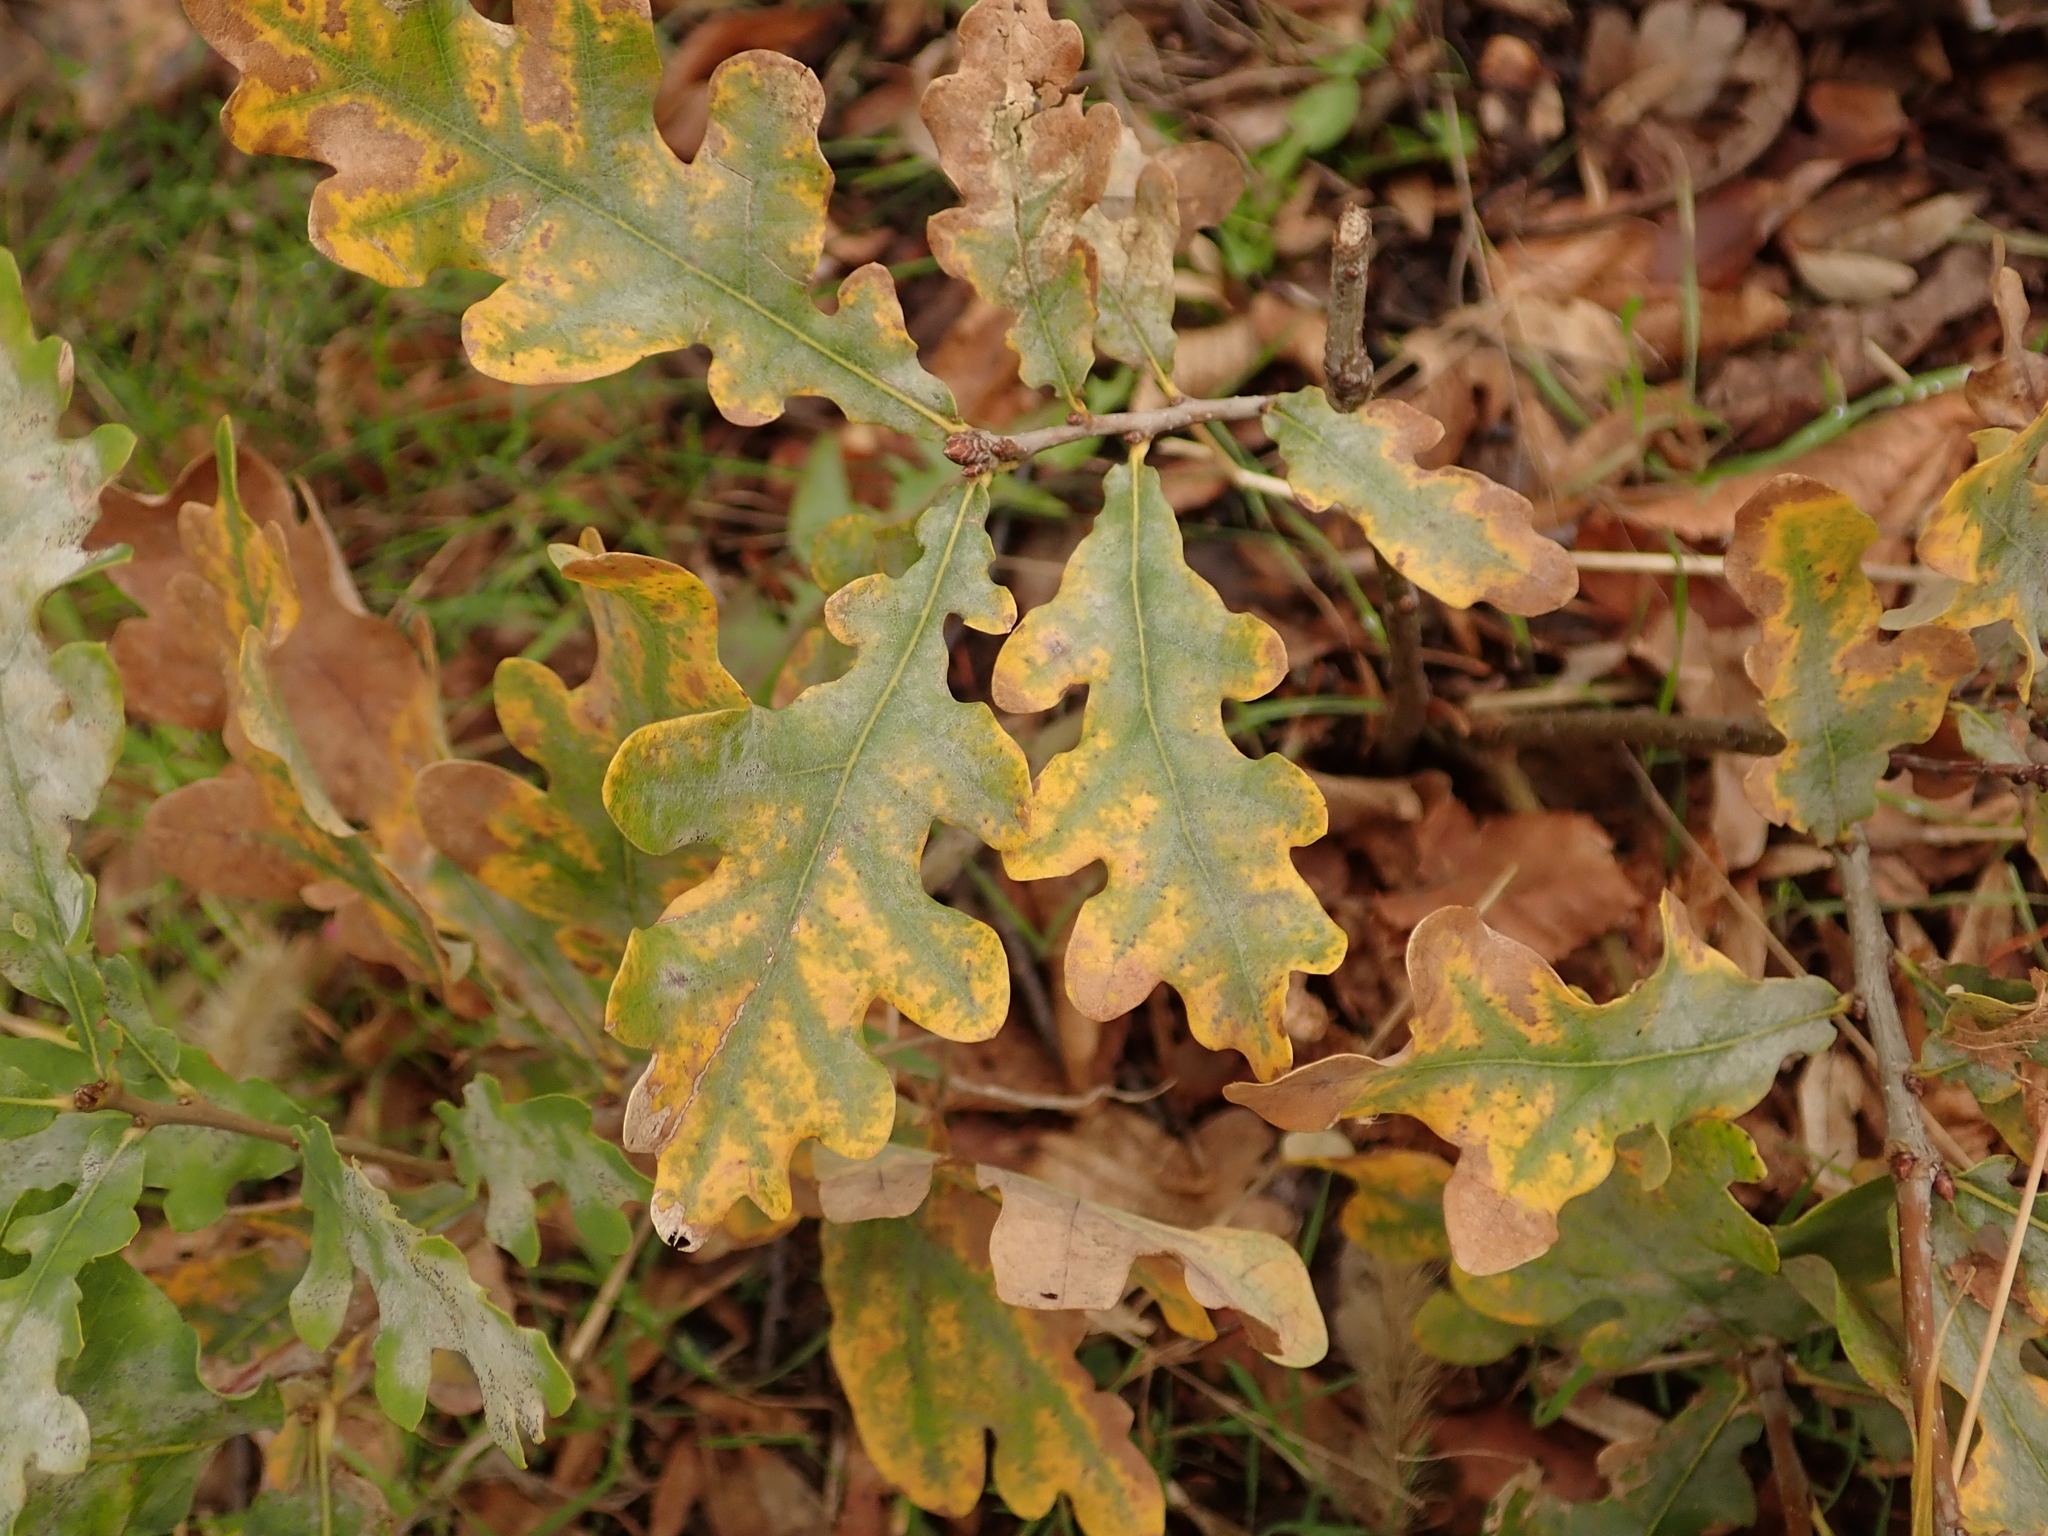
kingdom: Plantae
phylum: Tracheophyta
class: Magnoliopsida
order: Fagales
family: Fagaceae
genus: Quercus
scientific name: Quercus robur
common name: Pedunculate oak
